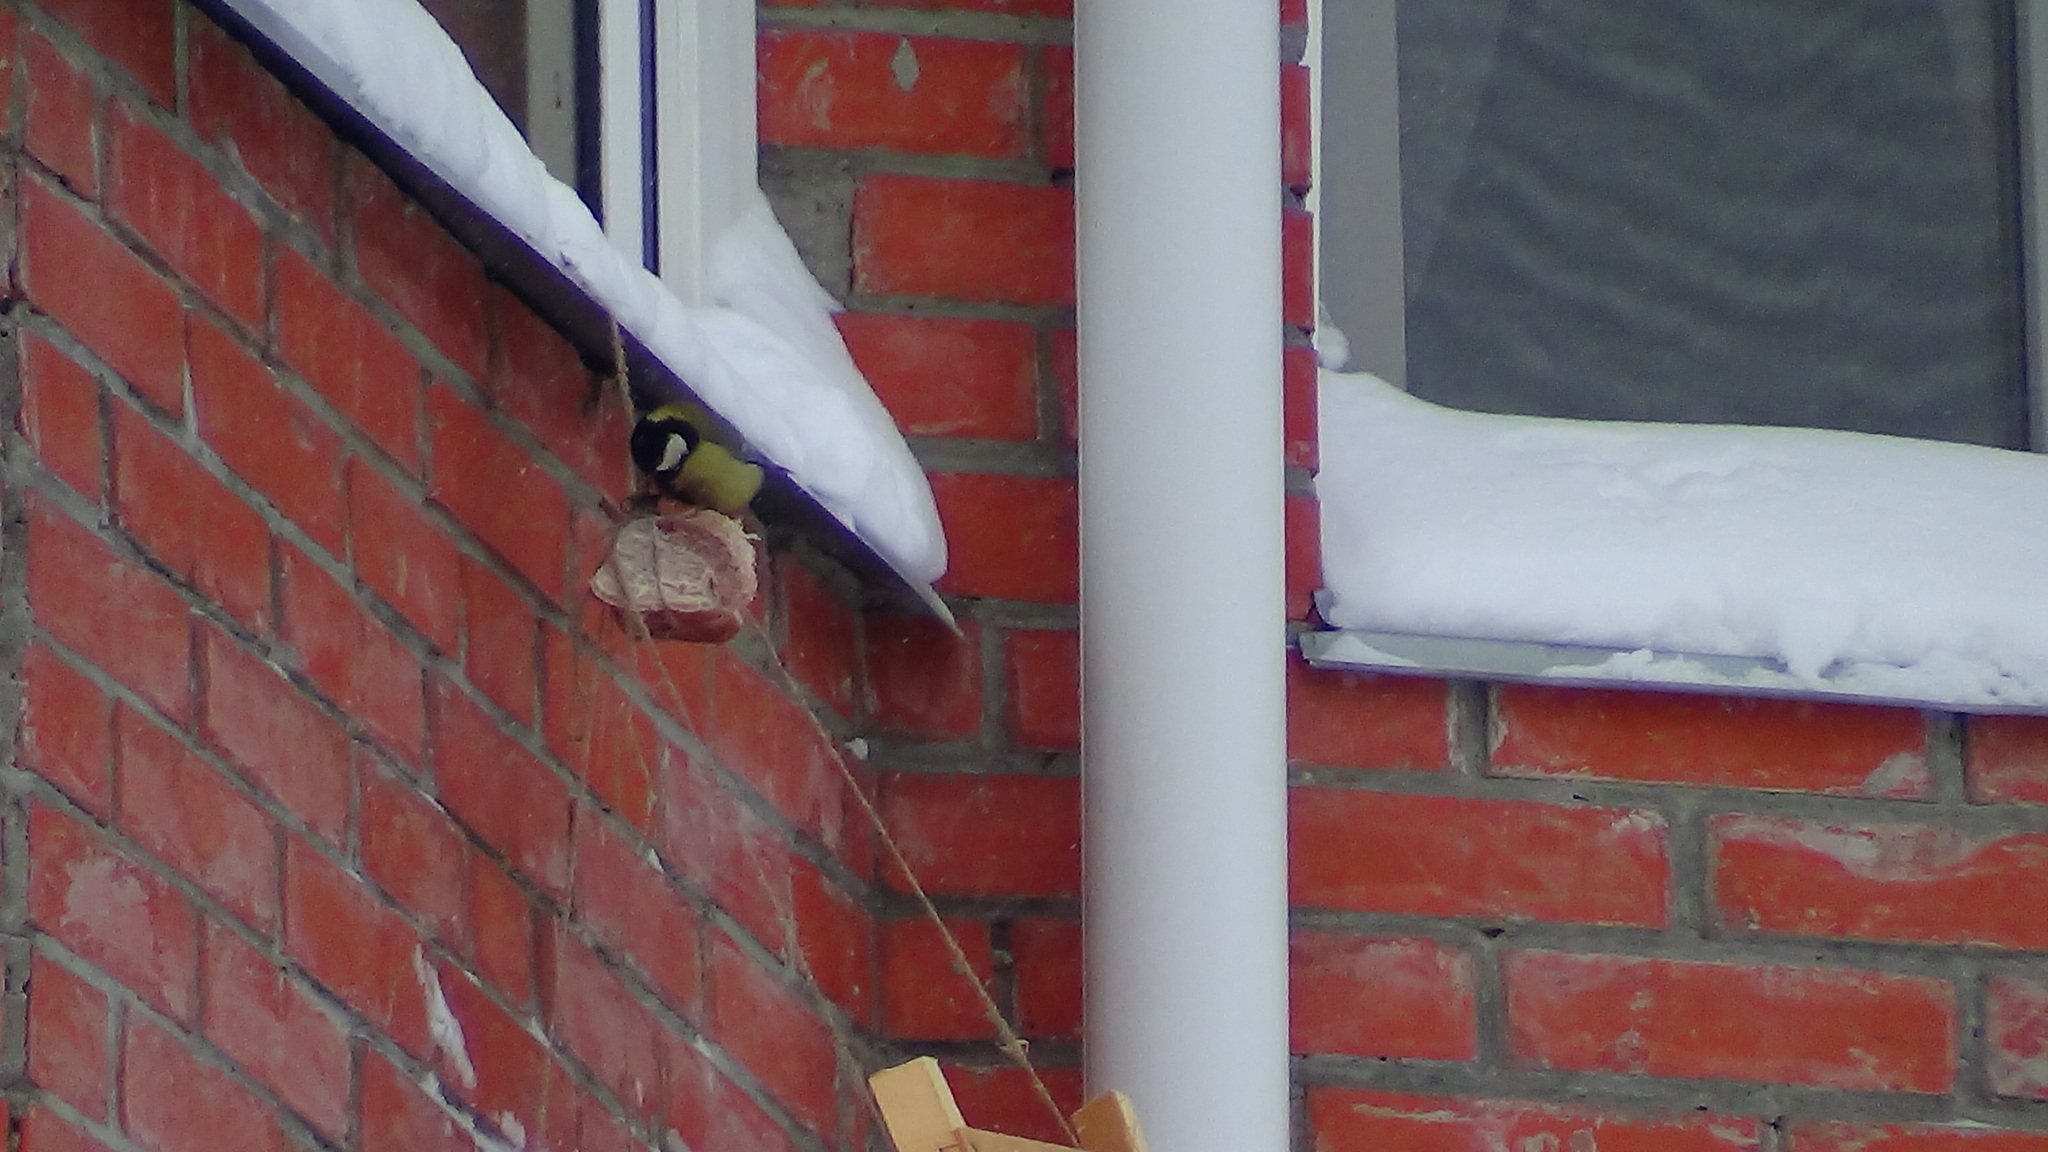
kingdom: Animalia
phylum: Chordata
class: Aves
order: Passeriformes
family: Paridae
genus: Parus
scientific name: Parus major
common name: Great tit
